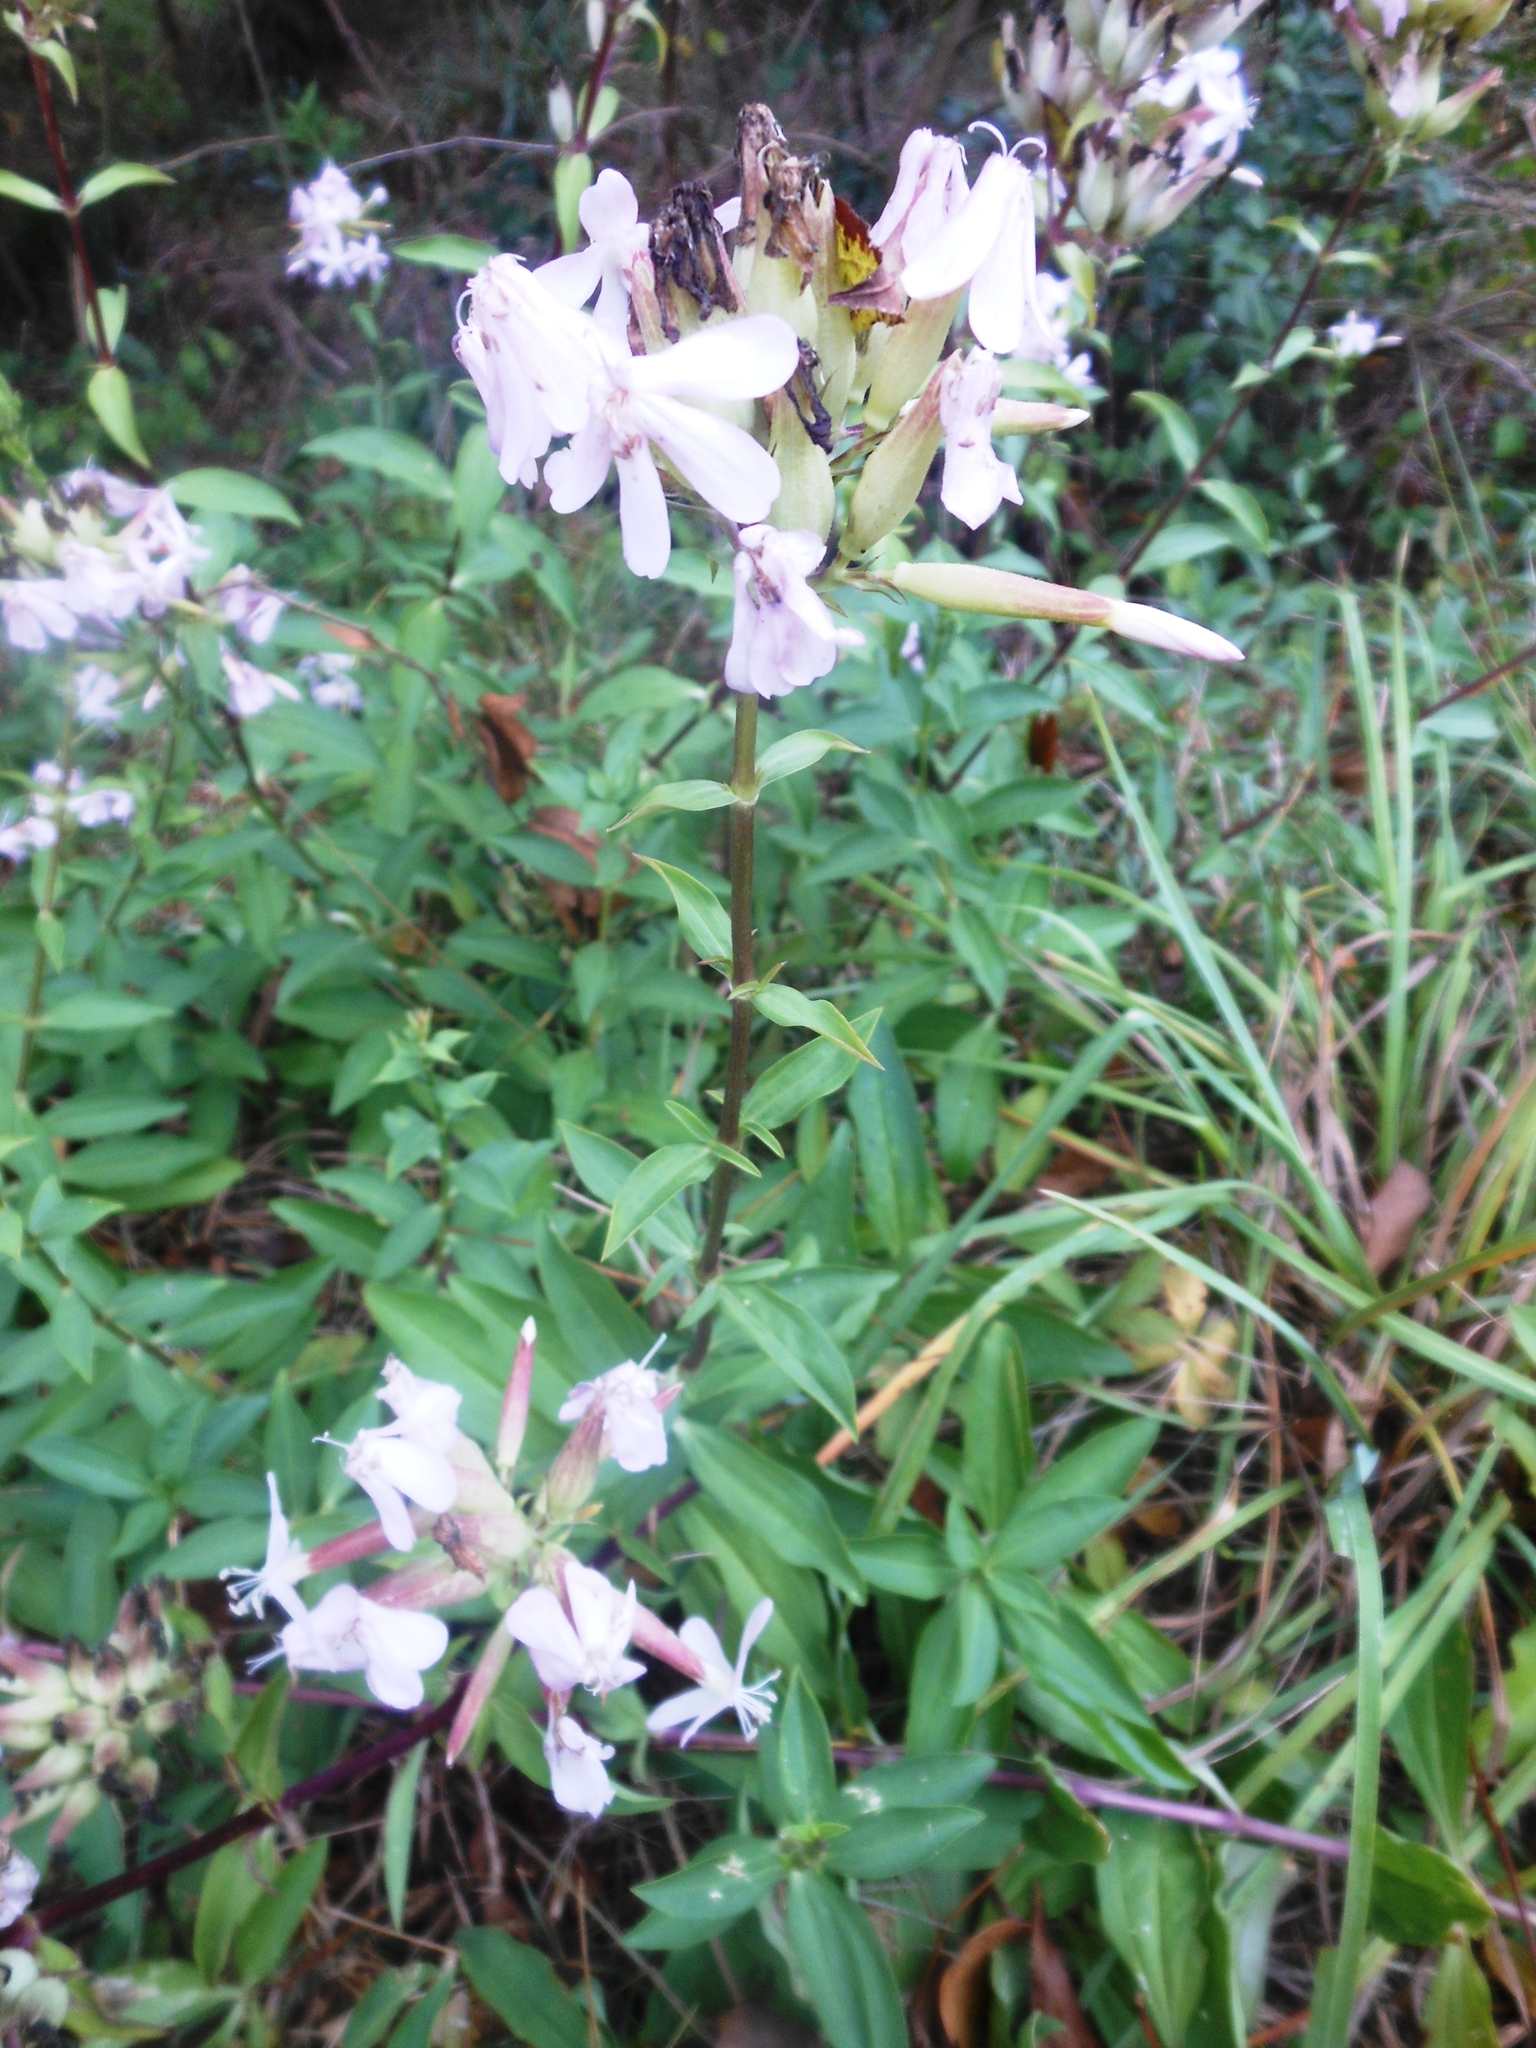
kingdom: Plantae
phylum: Tracheophyta
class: Magnoliopsida
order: Caryophyllales
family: Caryophyllaceae
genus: Saponaria
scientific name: Saponaria officinalis
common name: Soapwort
